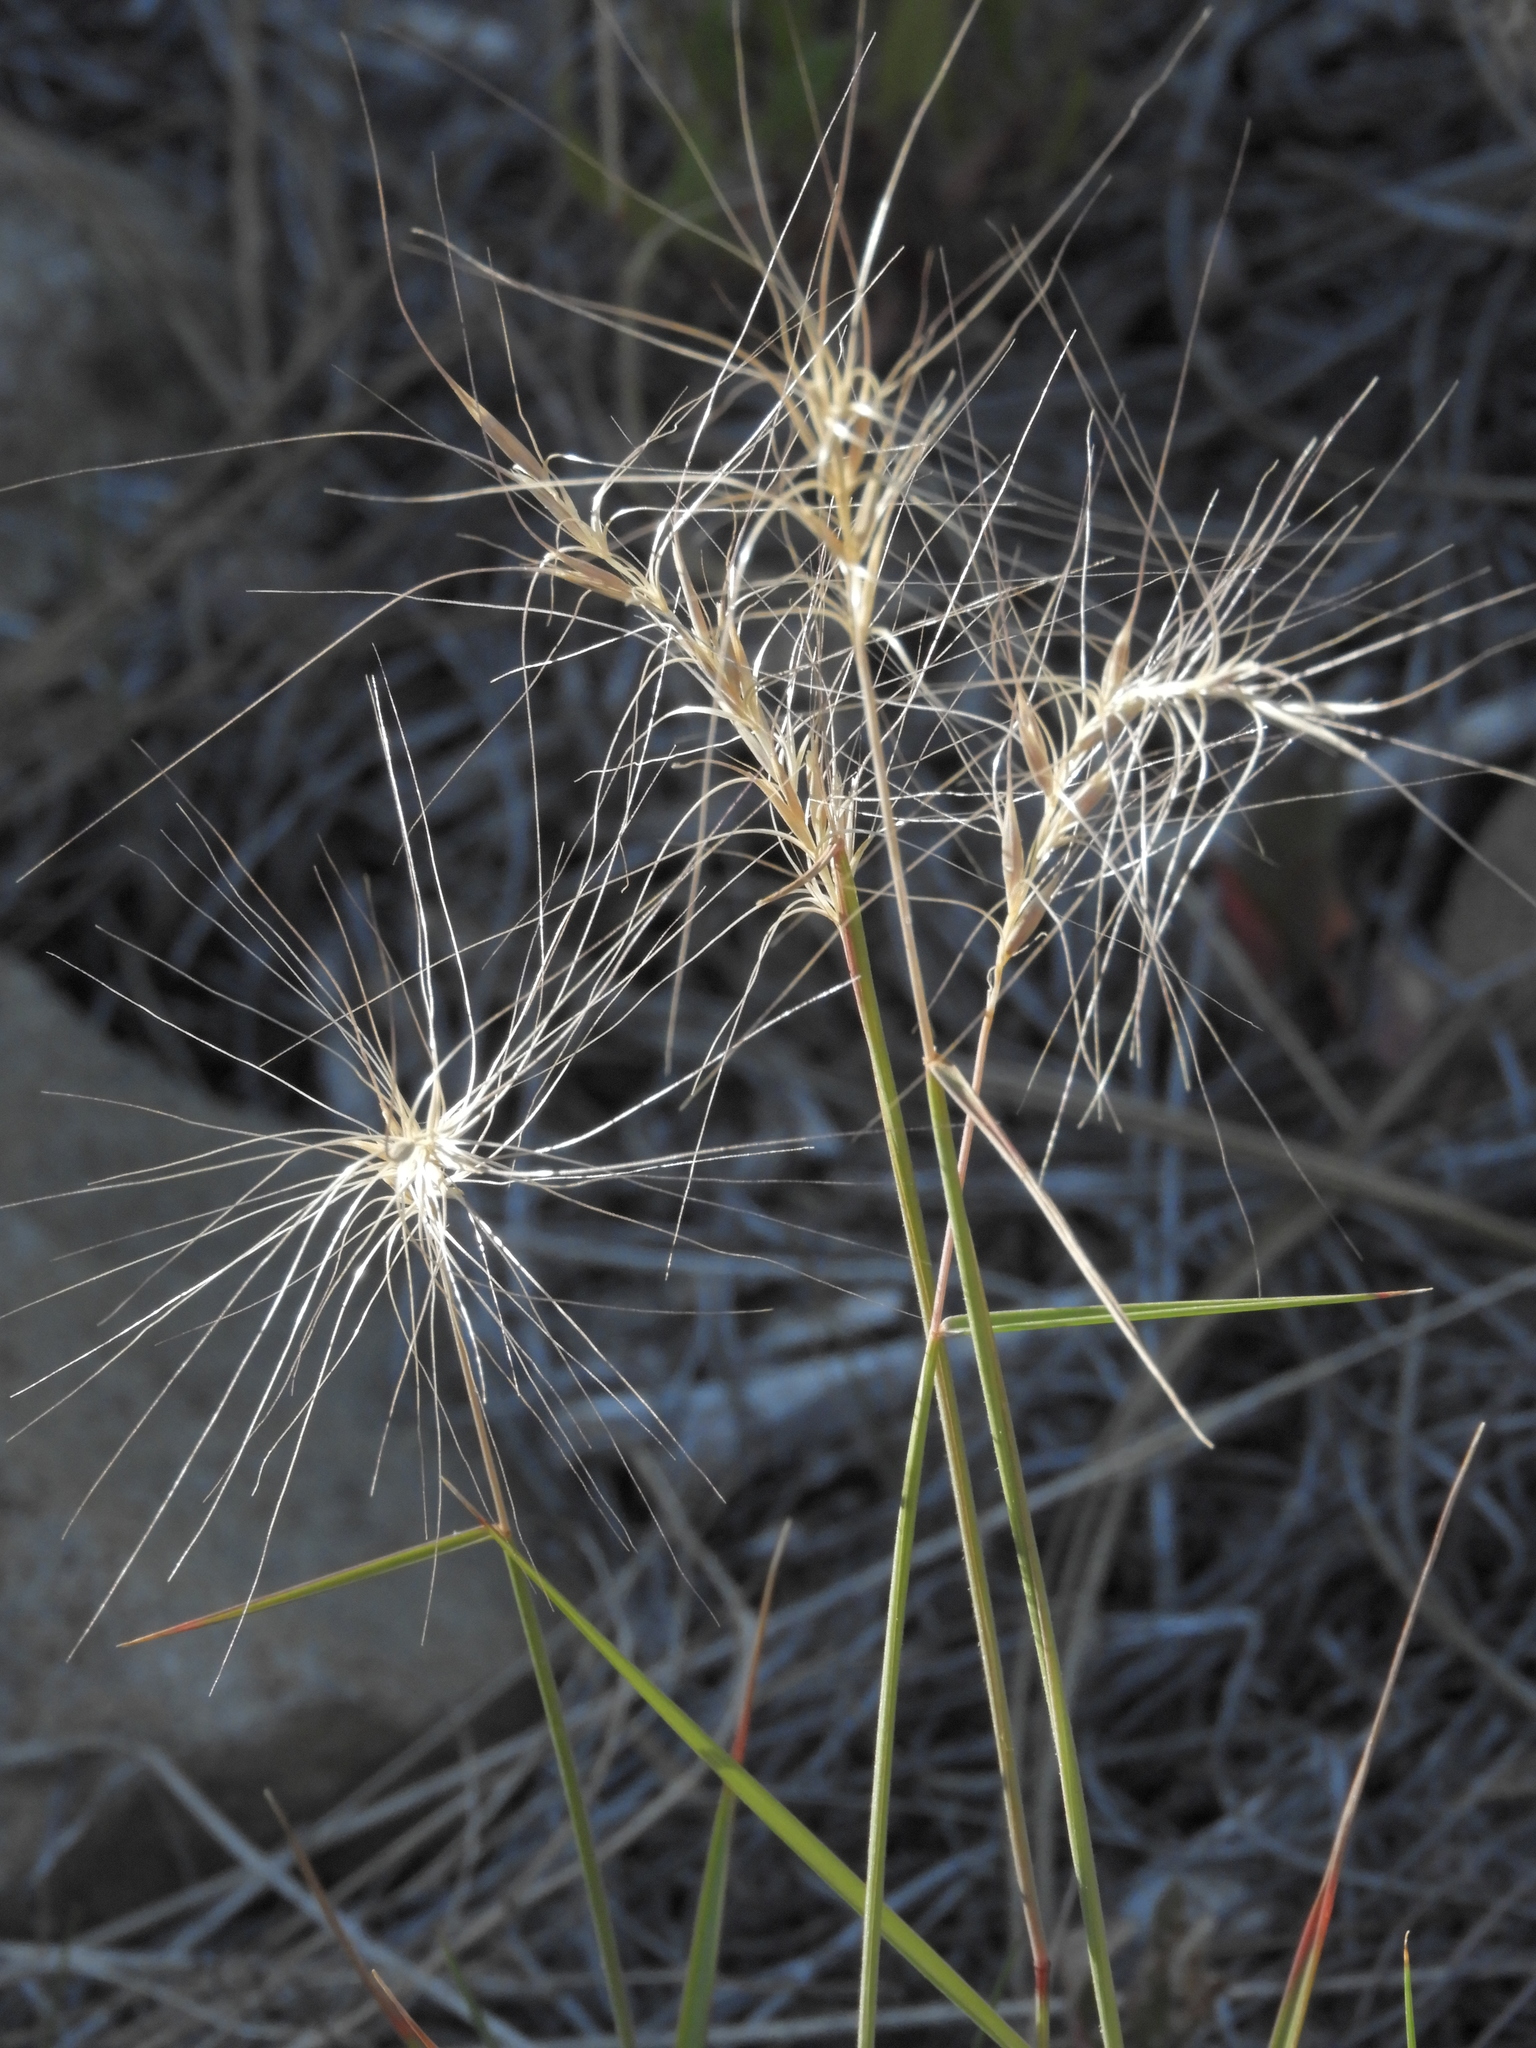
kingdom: Plantae
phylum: Tracheophyta
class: Liliopsida
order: Poales
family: Poaceae
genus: Elymus
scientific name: Elymus elymoides
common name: Bottlebrush squirreltail
